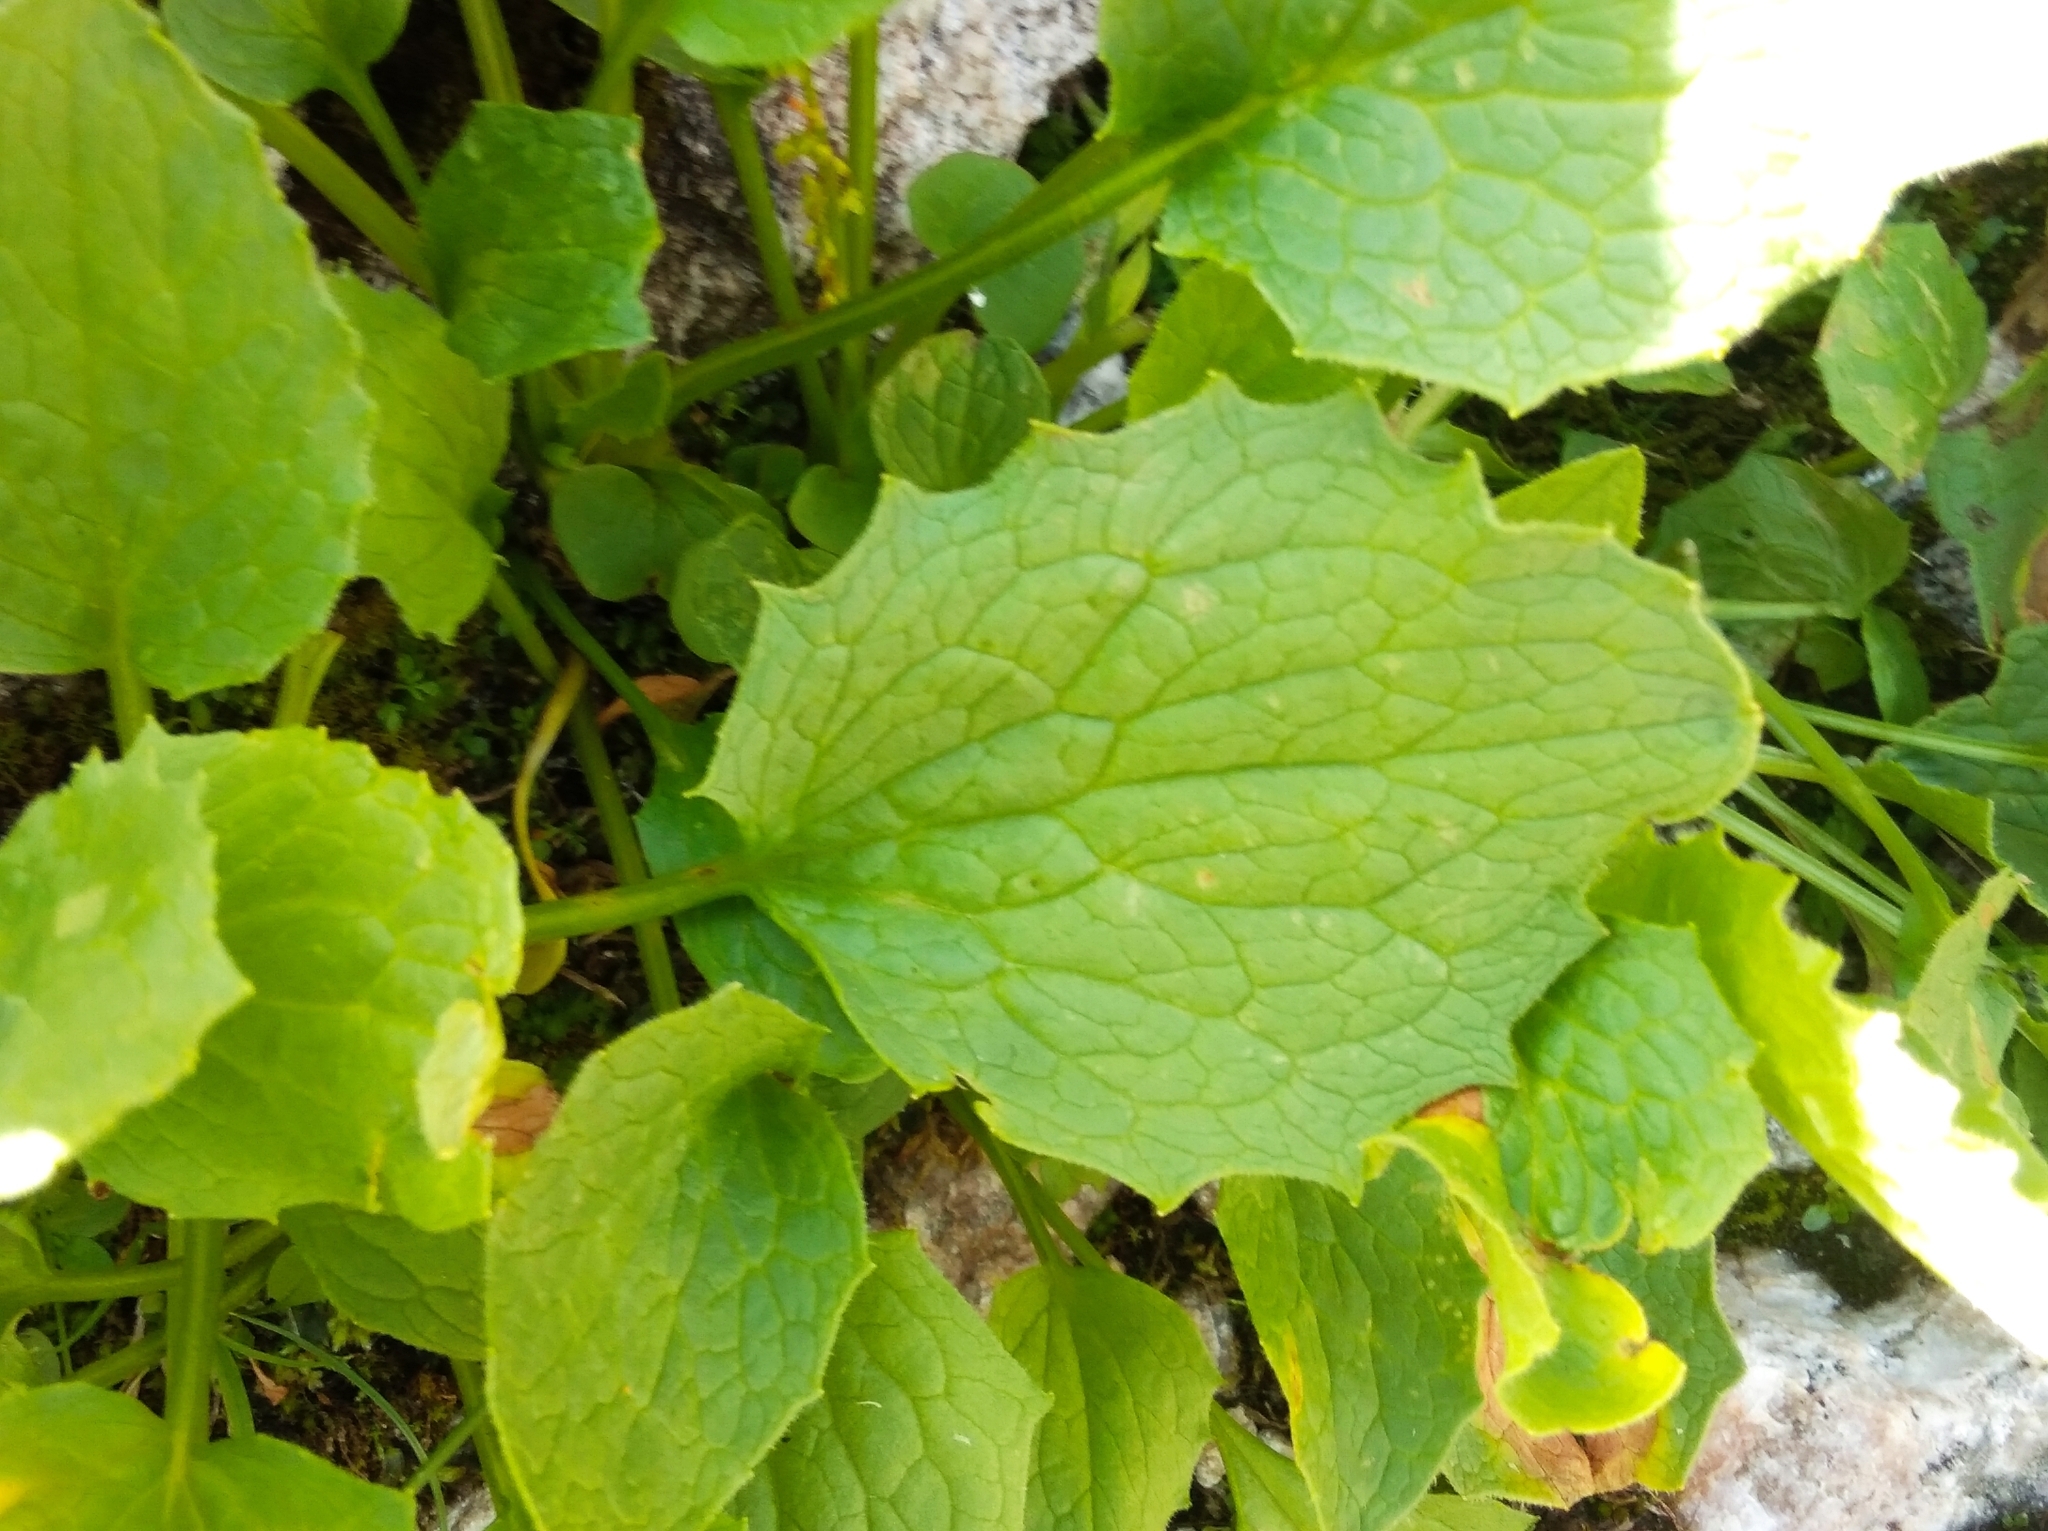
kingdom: Plantae
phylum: Tracheophyta
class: Magnoliopsida
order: Asterales
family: Asteraceae
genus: Doronicum
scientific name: Doronicum grandiflorum
